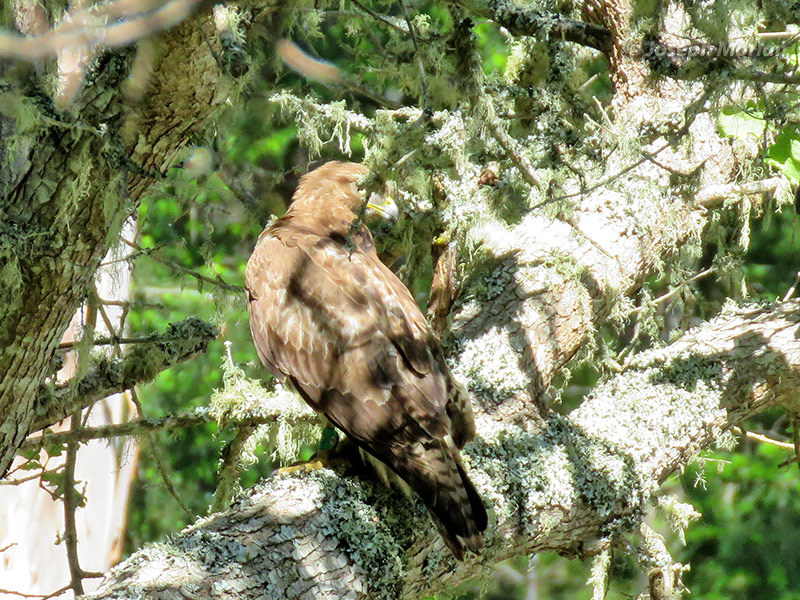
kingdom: Animalia
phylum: Chordata
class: Aves
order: Accipitriformes
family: Accipitridae
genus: Buteo
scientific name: Buteo jamaicensis
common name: Red-tailed hawk
